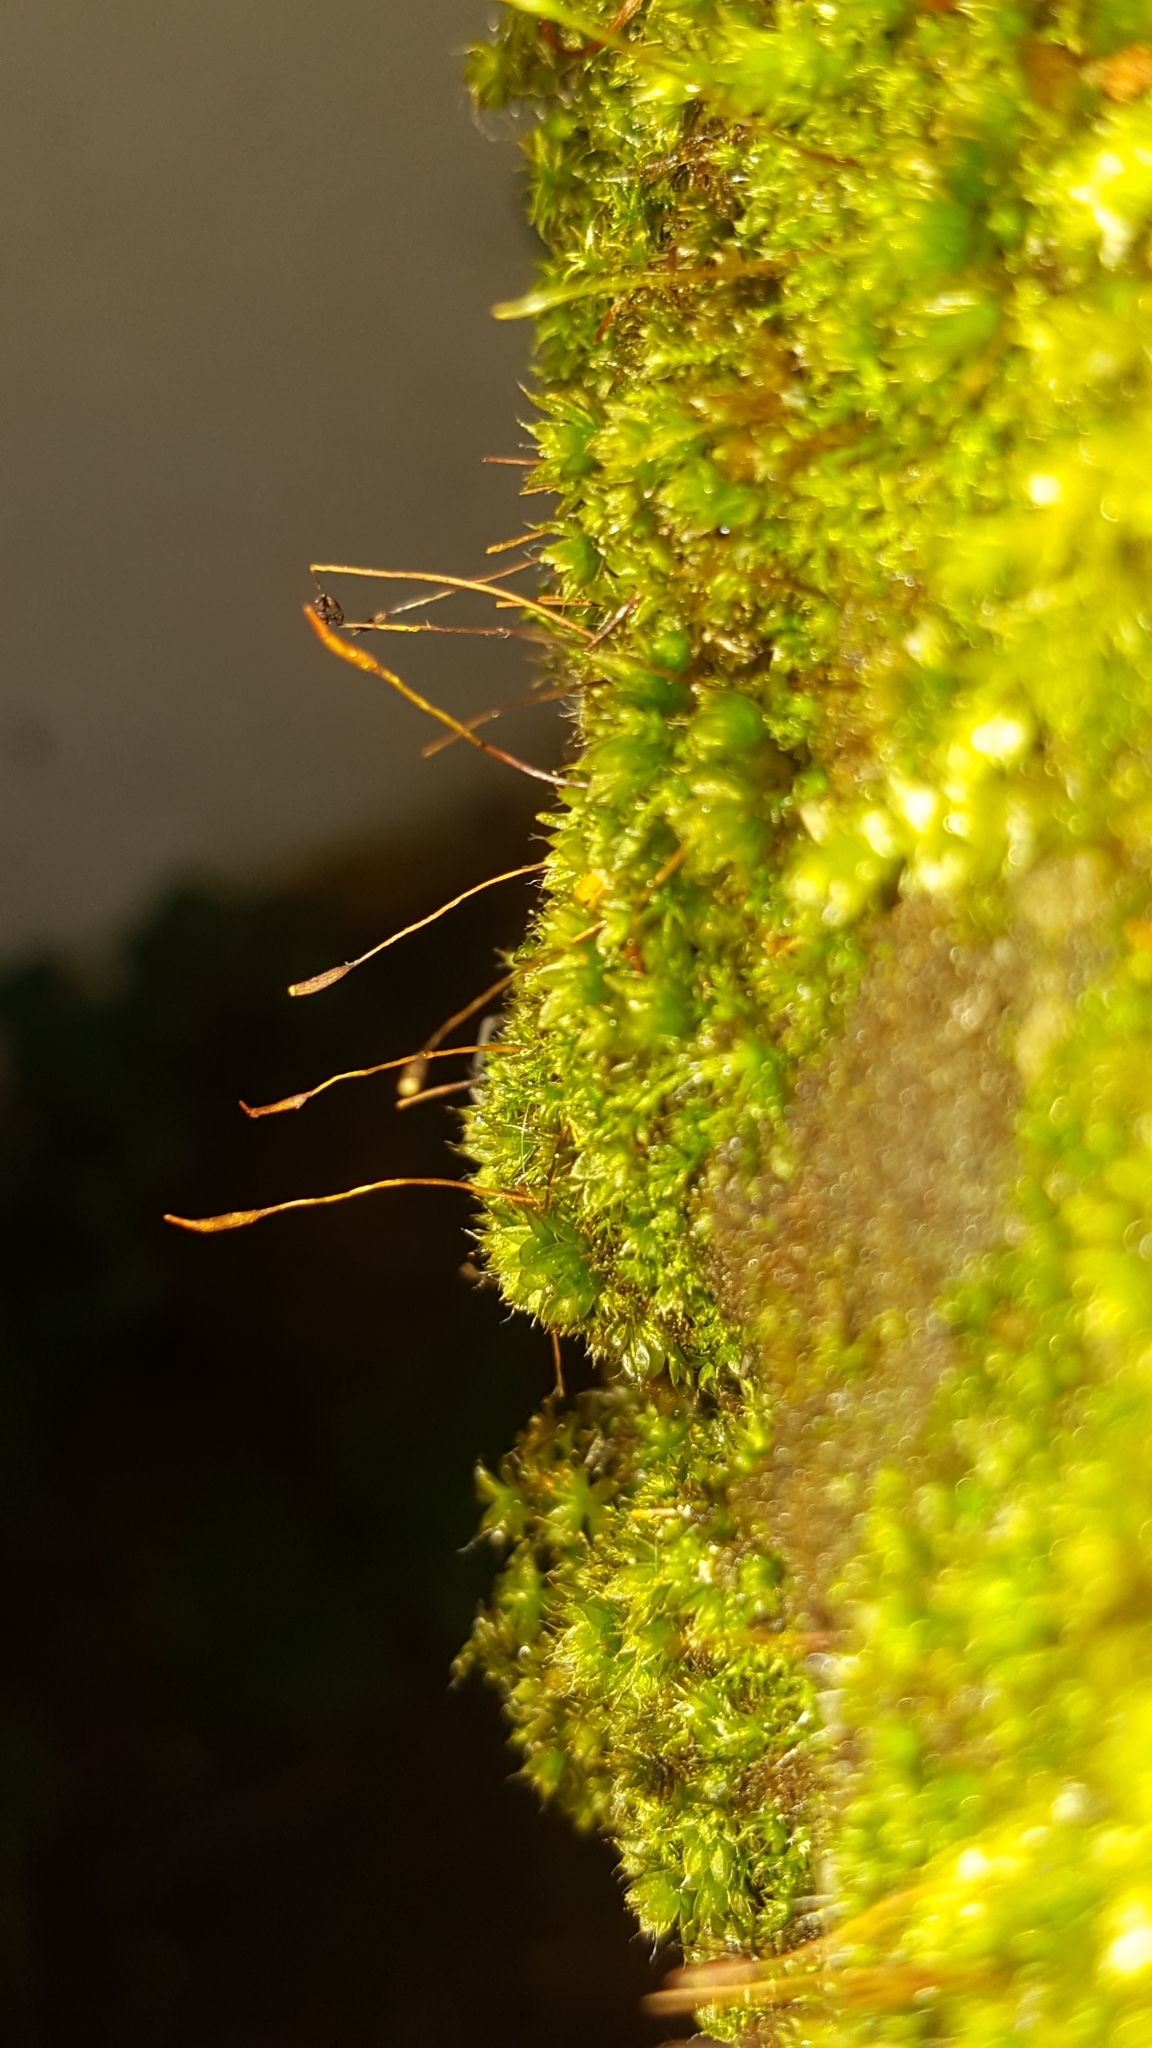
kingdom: Plantae
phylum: Bryophyta
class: Bryopsida
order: Pottiales
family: Pottiaceae
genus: Tortula
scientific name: Tortula muralis
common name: Wall screw-moss
